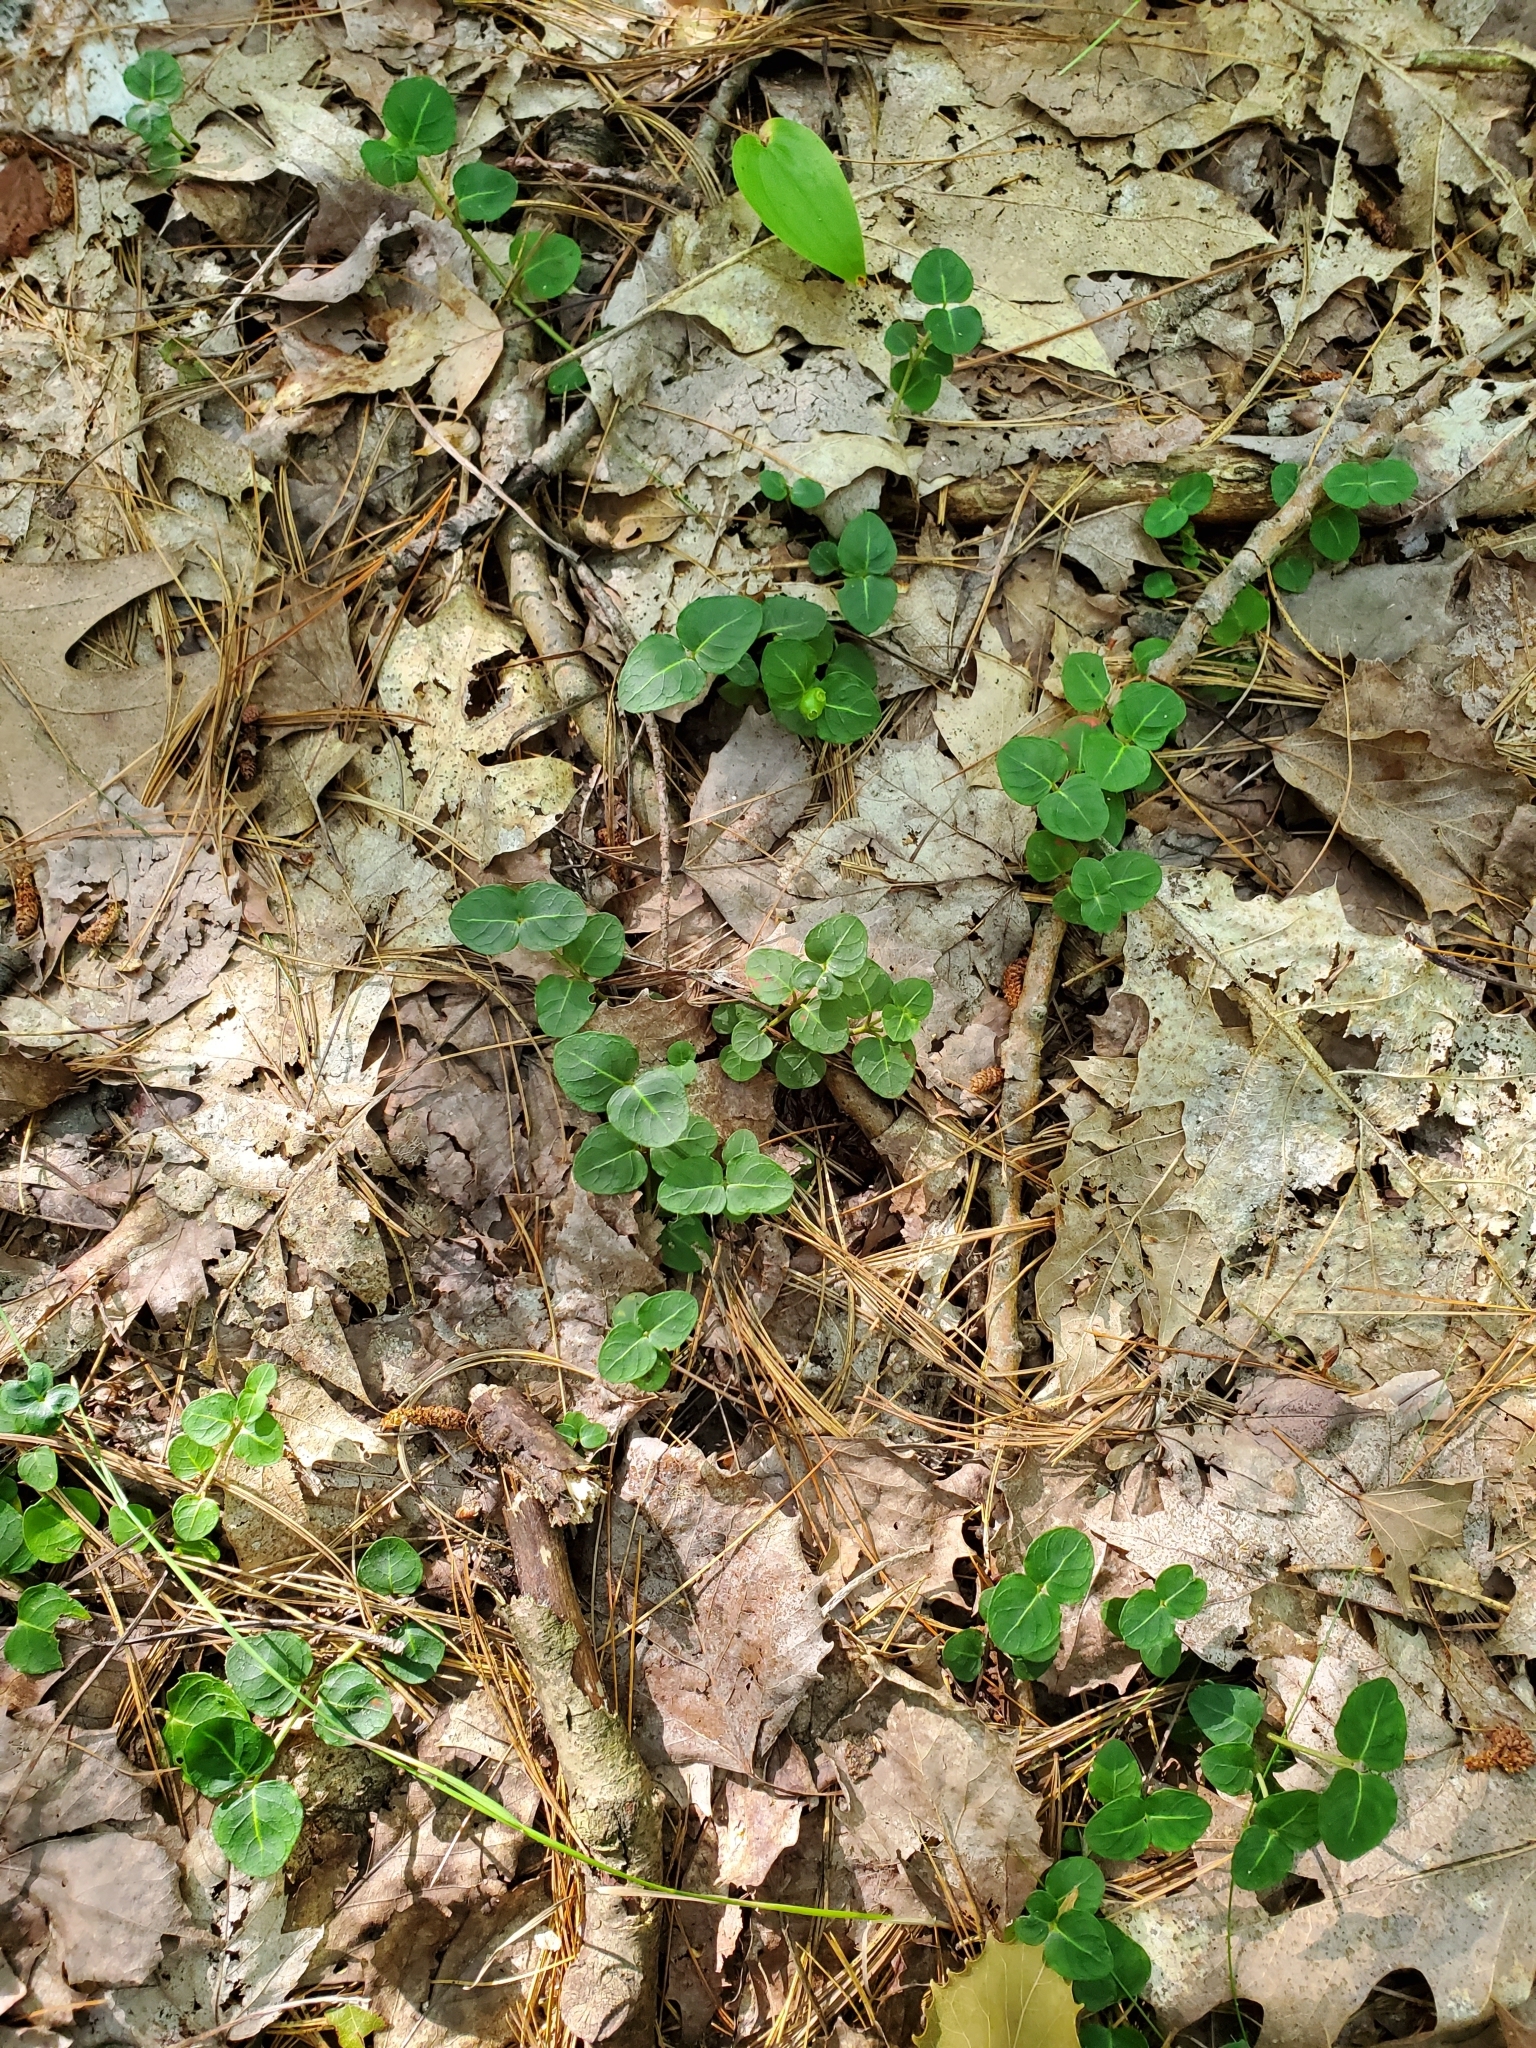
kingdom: Plantae
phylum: Tracheophyta
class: Magnoliopsida
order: Gentianales
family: Rubiaceae
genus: Mitchella
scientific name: Mitchella repens
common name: Partridge-berry
